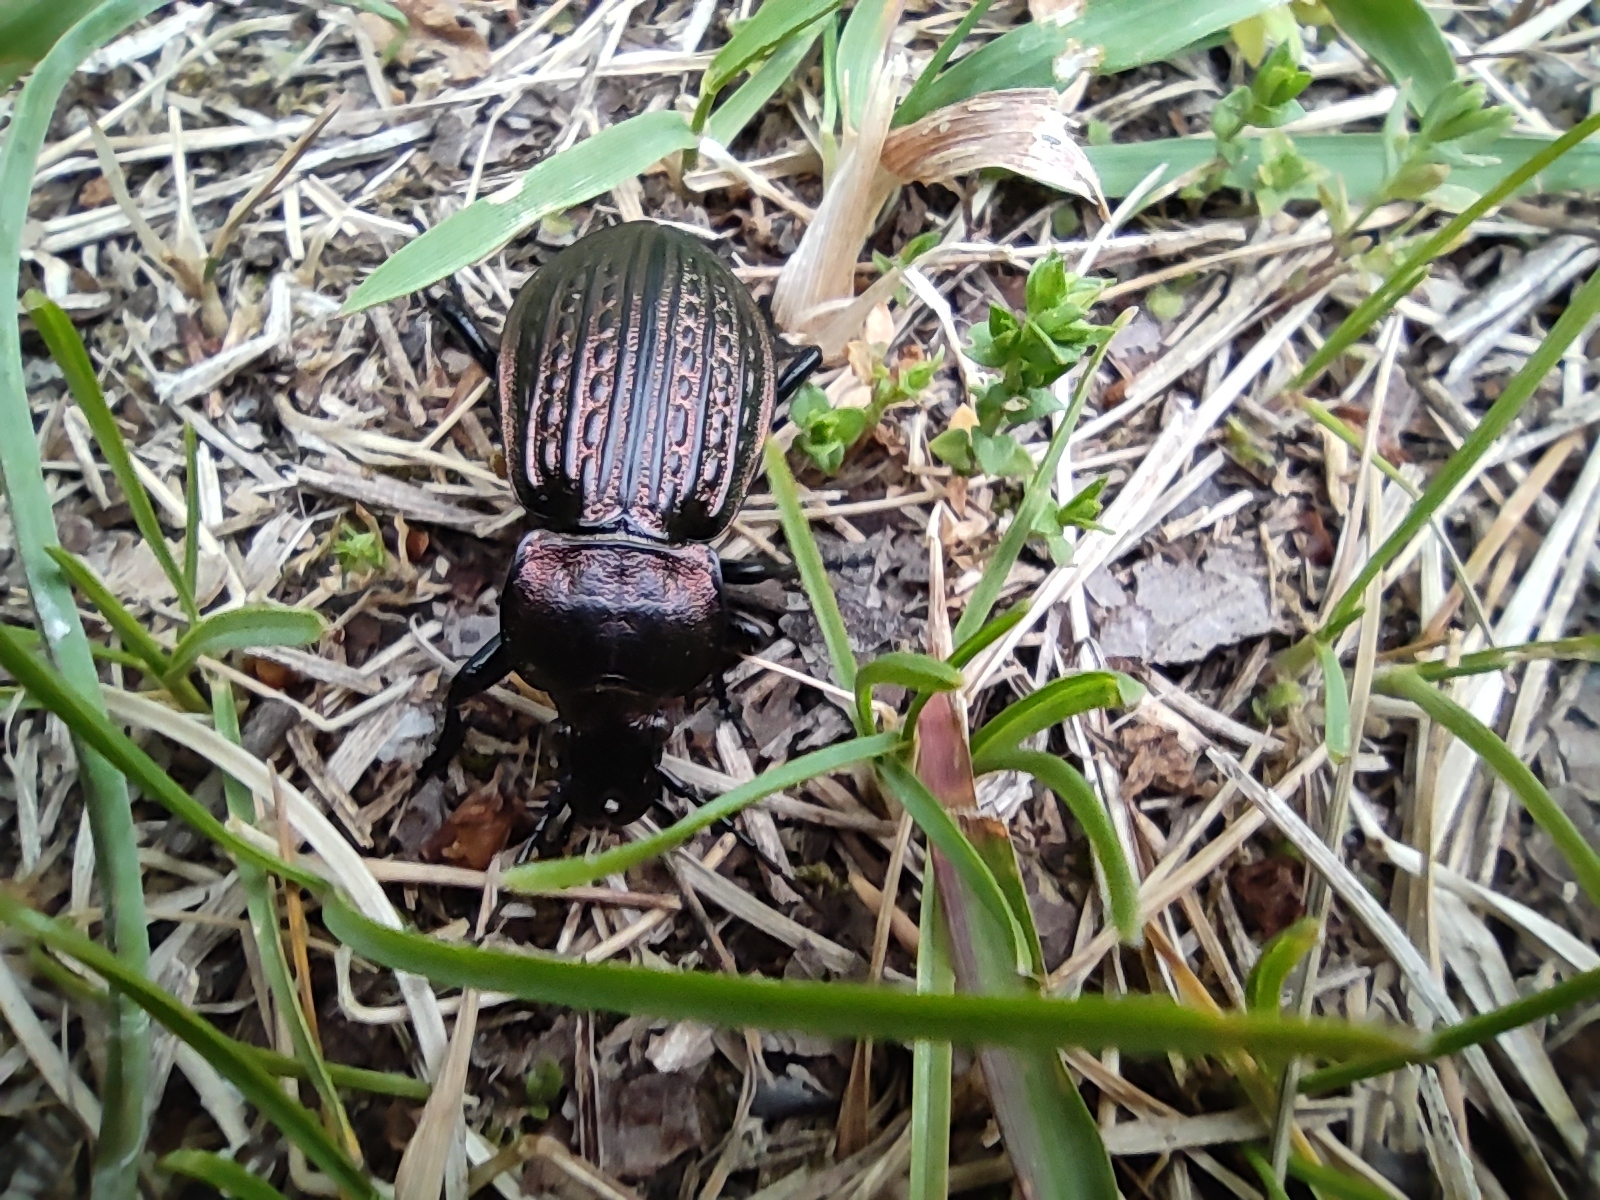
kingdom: Animalia
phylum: Arthropoda
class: Insecta
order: Coleoptera
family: Carabidae
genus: Carabus
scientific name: Carabus ulrichii
